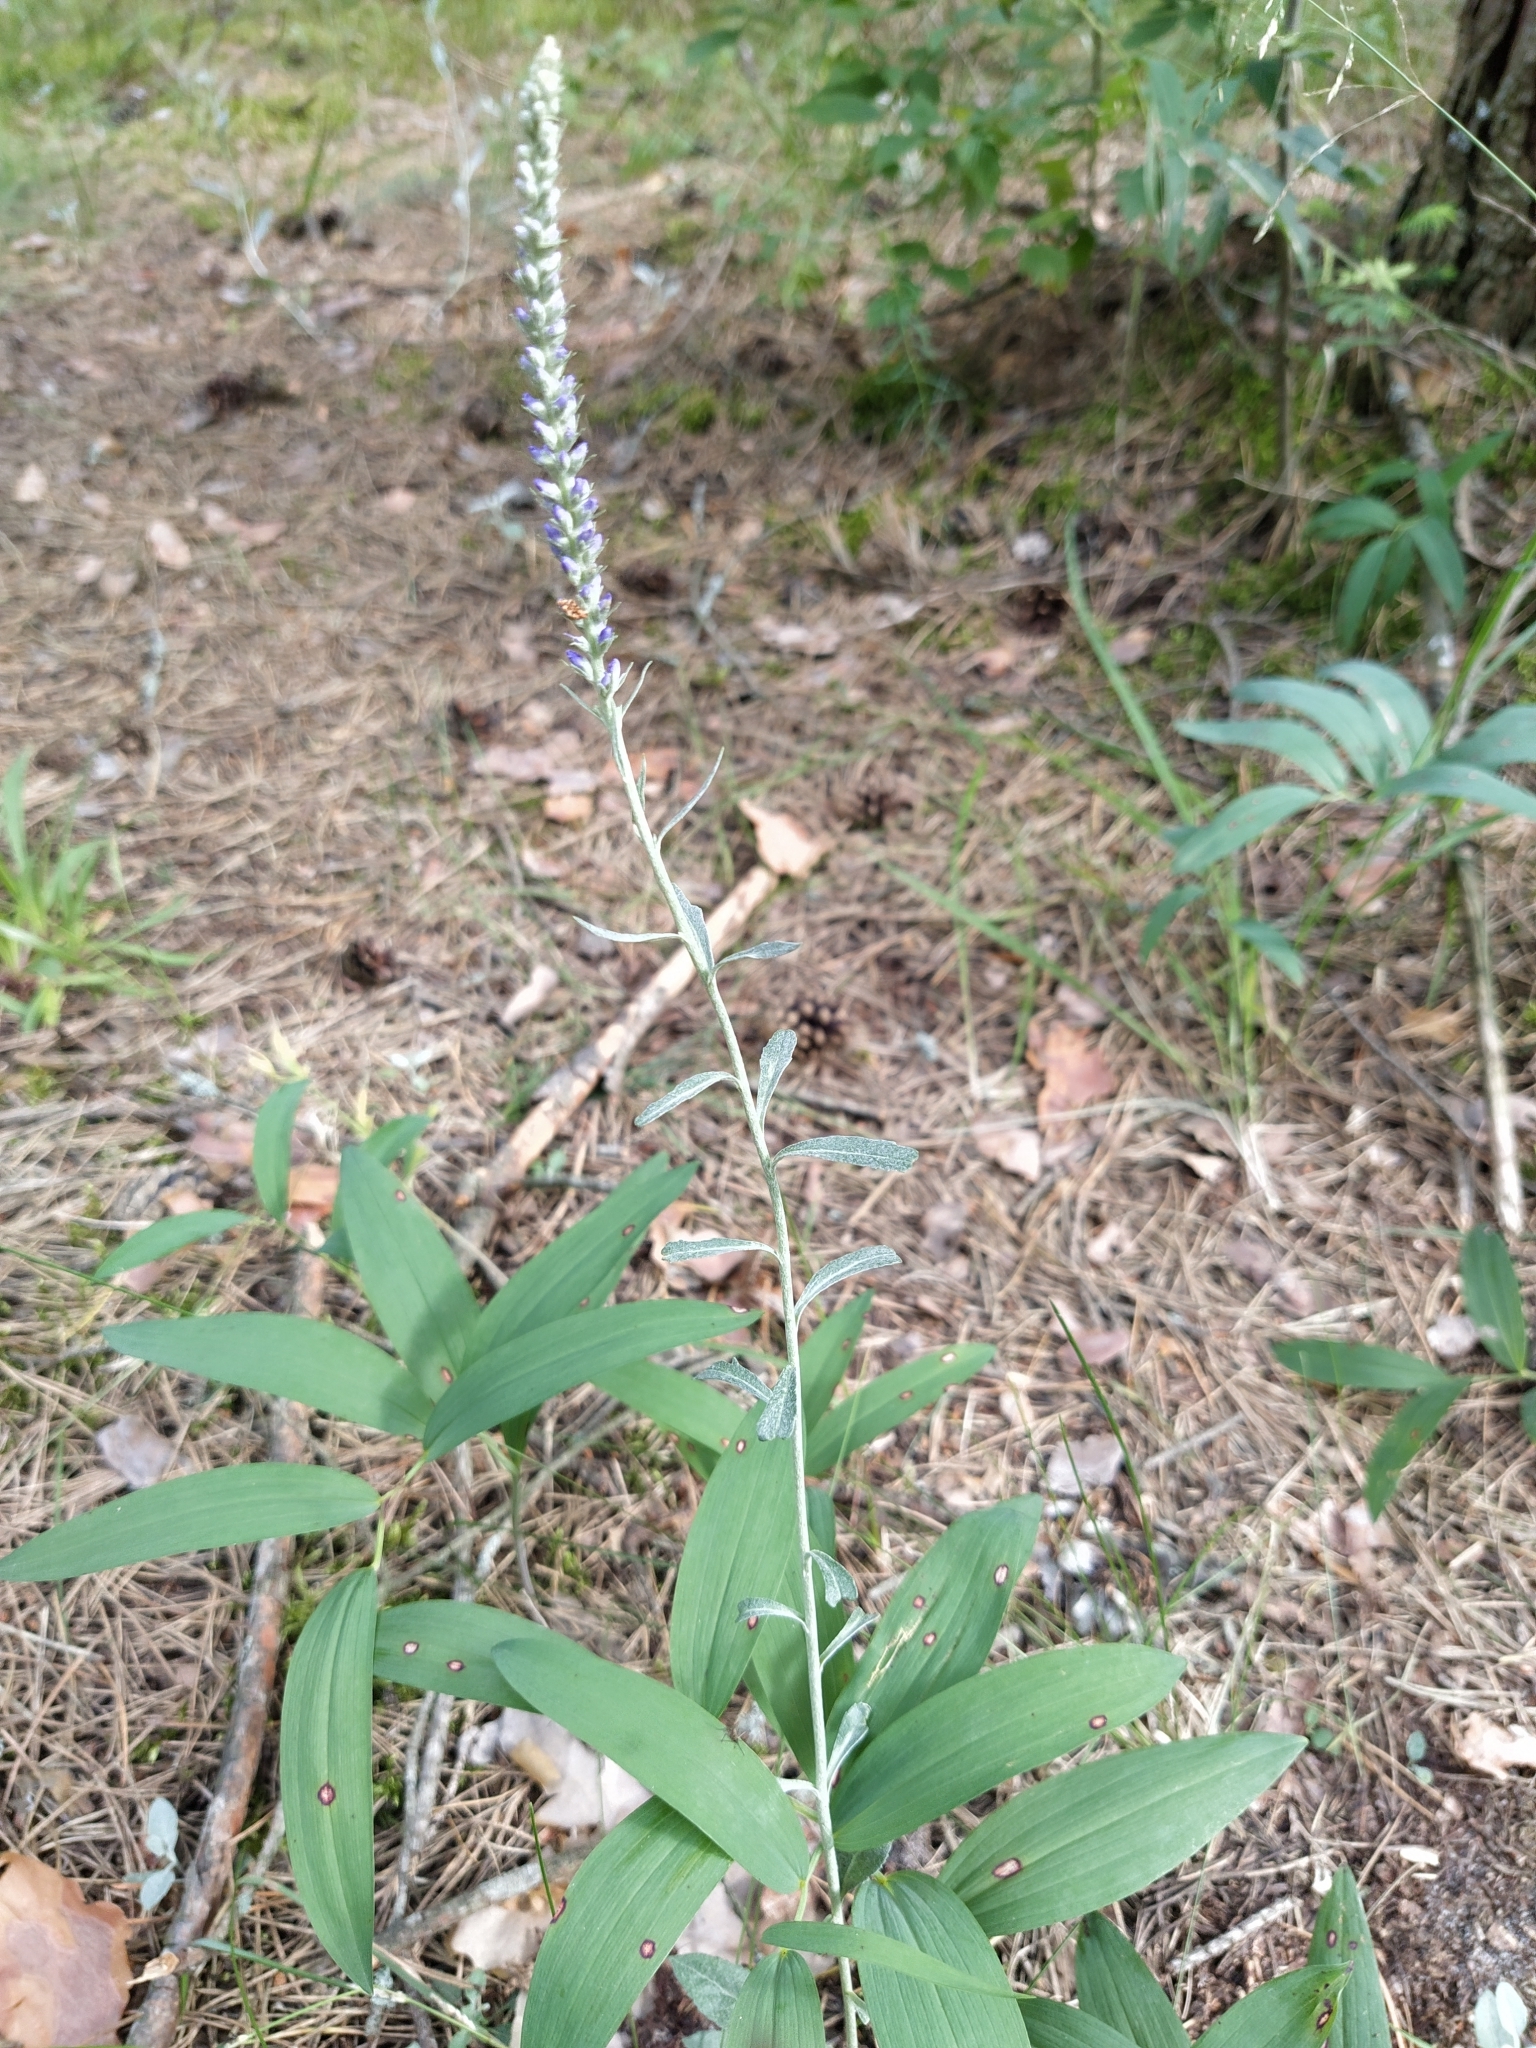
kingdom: Plantae
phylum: Tracheophyta
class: Magnoliopsida
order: Lamiales
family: Plantaginaceae
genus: Veronica
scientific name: Veronica incana
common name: Silver speedwell
